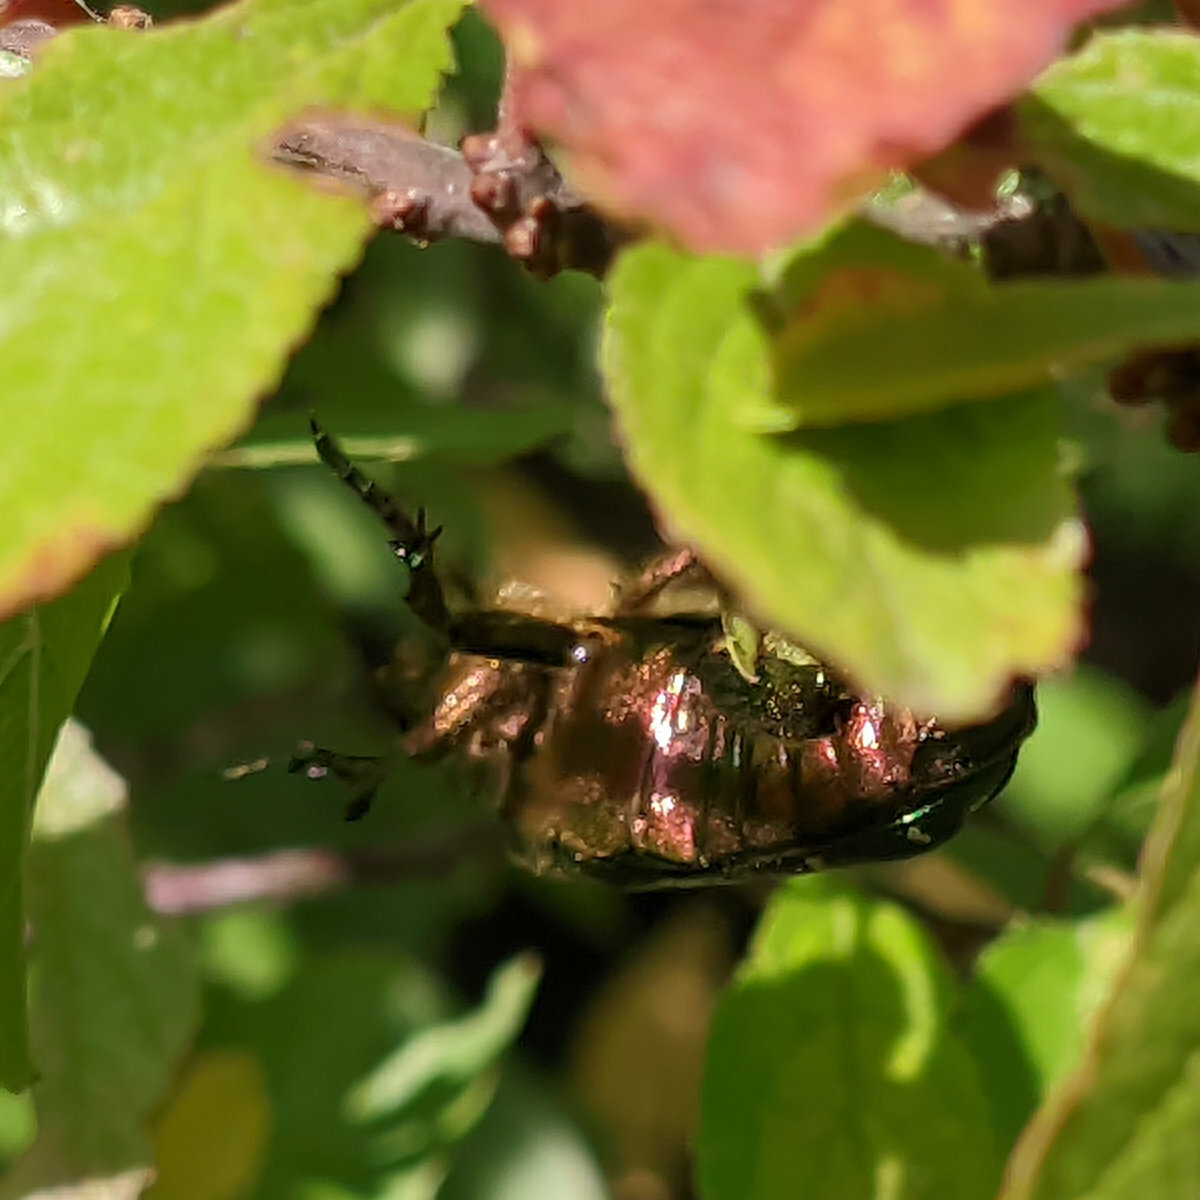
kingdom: Animalia
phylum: Arthropoda
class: Insecta
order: Coleoptera
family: Scarabaeidae
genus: Cetonia
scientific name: Cetonia aurata
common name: Rose chafer
